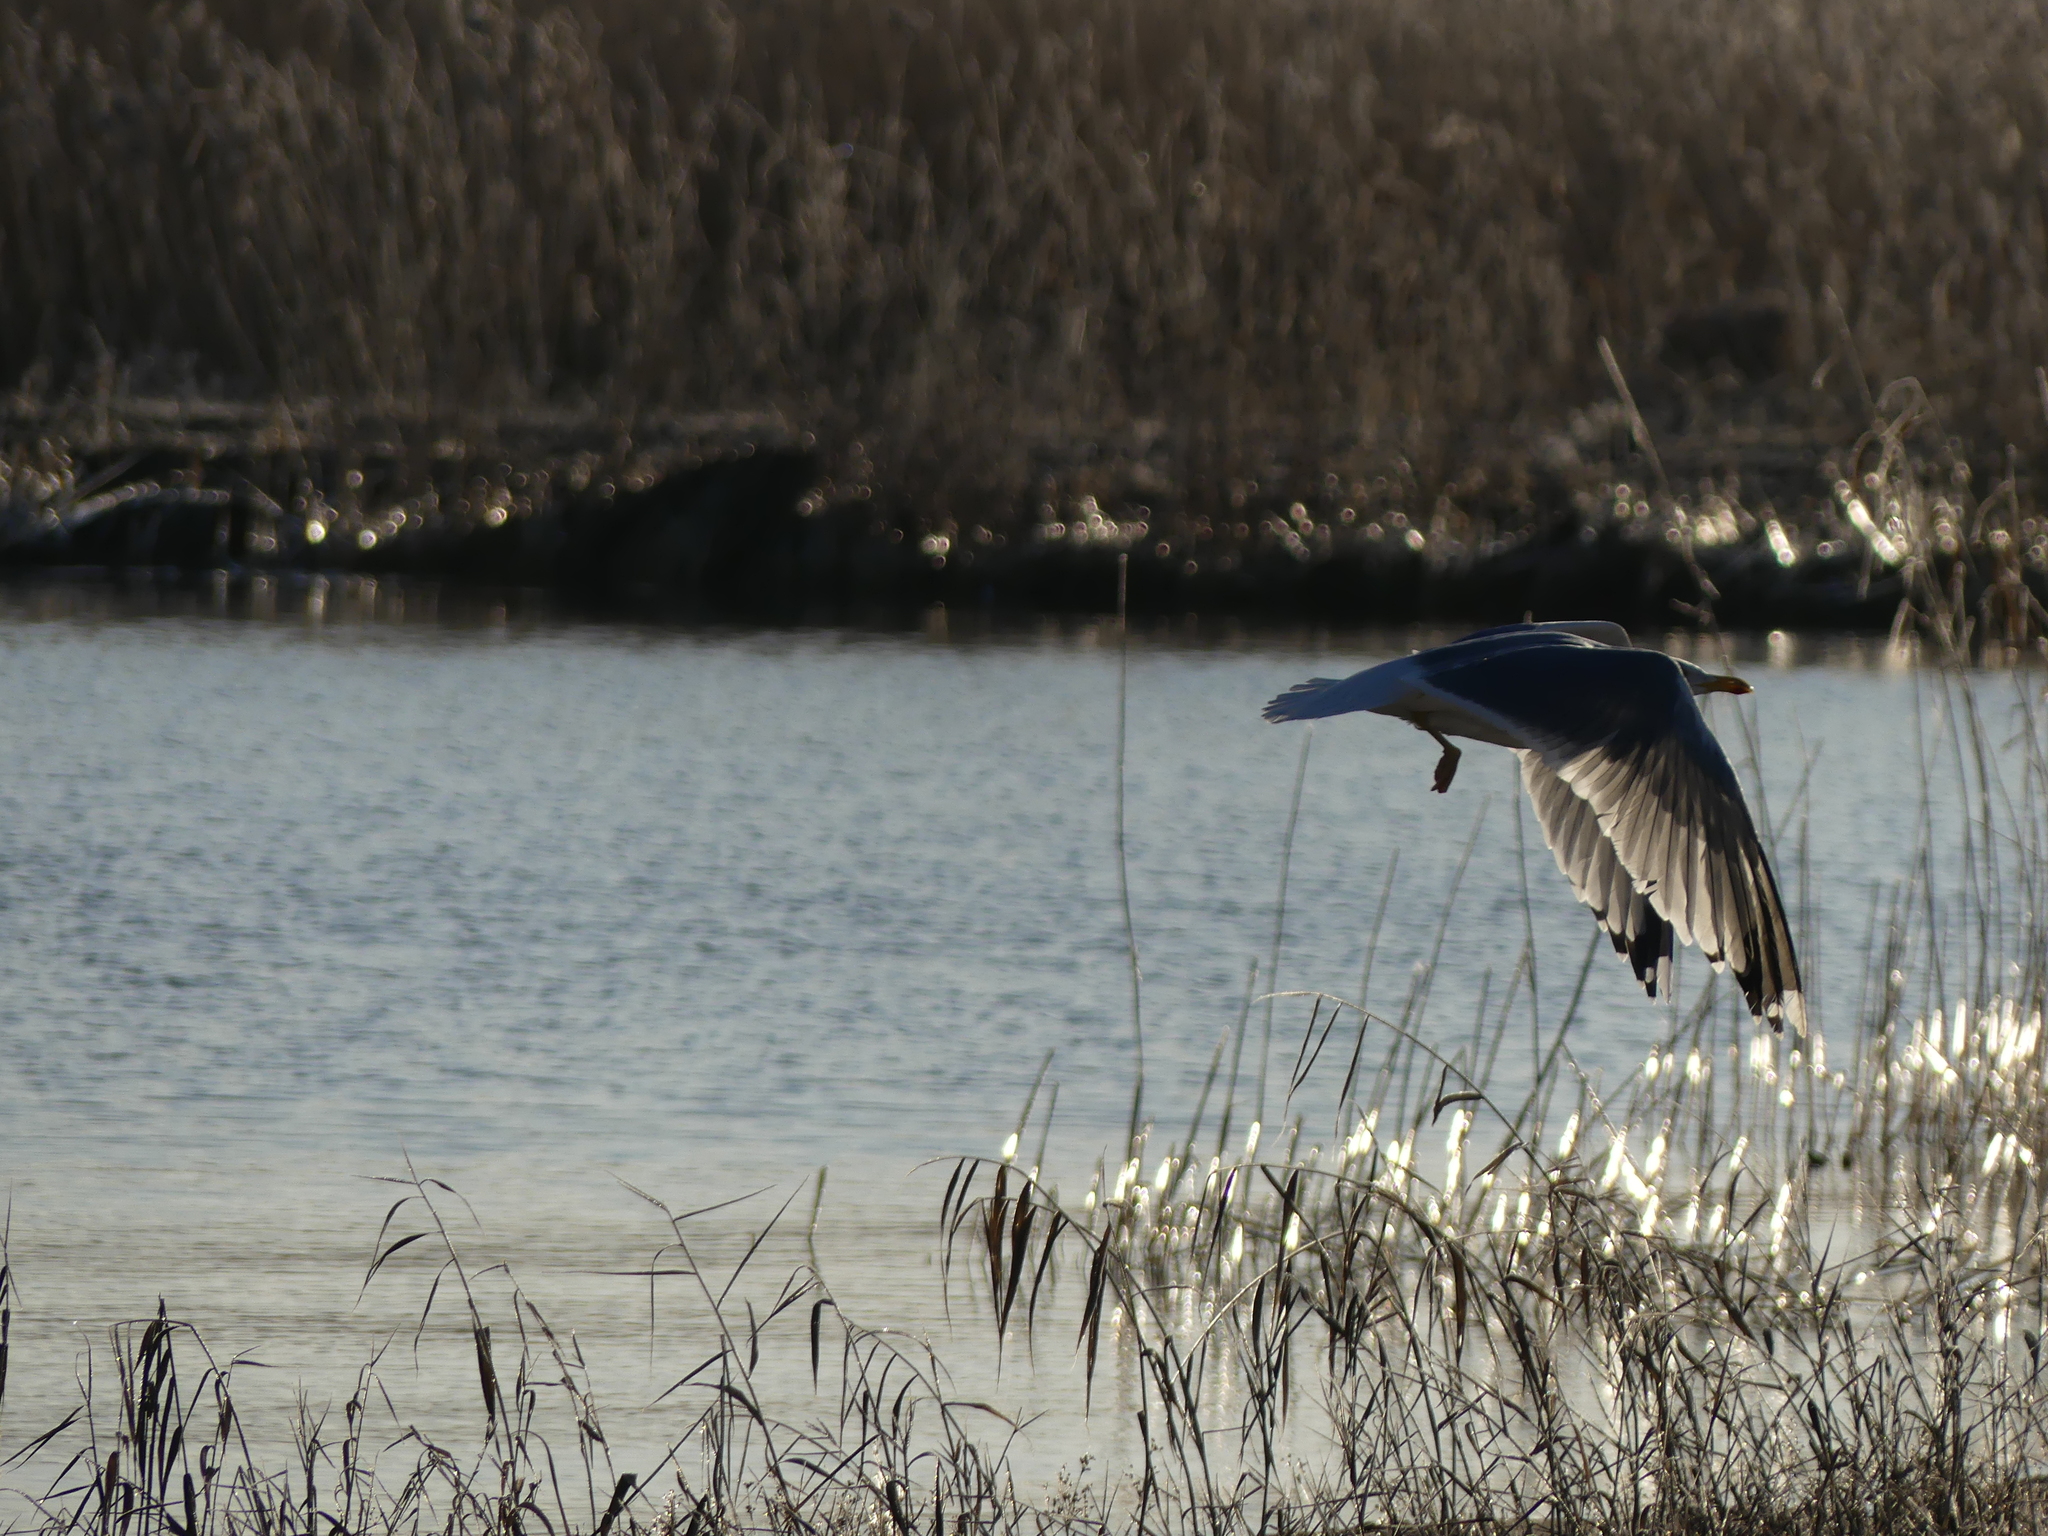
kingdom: Animalia
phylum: Chordata
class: Aves
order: Charadriiformes
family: Laridae
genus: Larus
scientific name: Larus argentatus
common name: Herring gull
